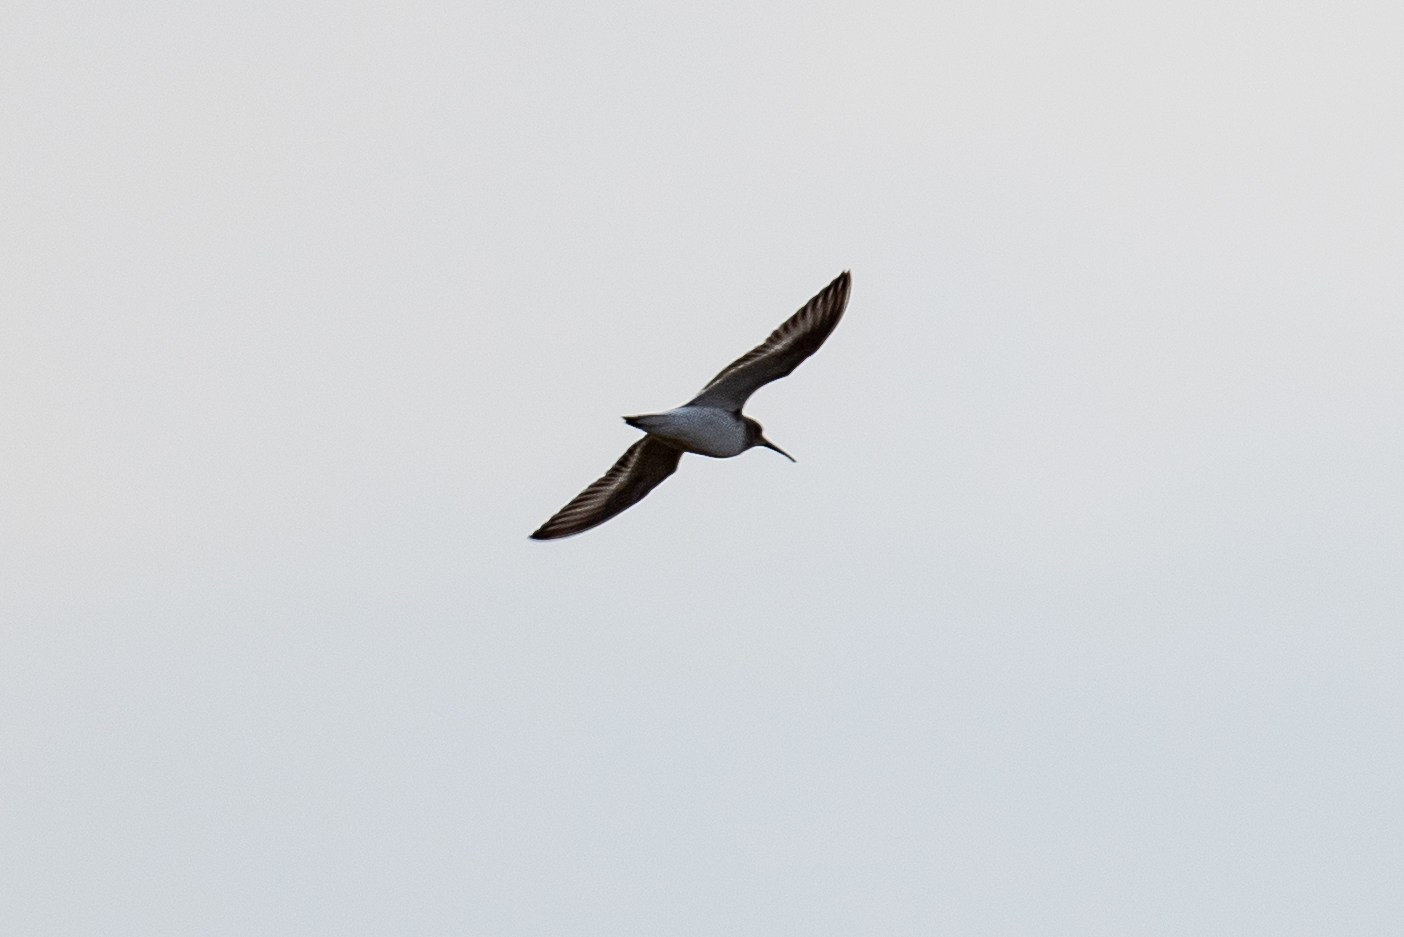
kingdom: Animalia
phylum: Chordata
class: Aves
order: Charadriiformes
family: Scolopacidae
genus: Calidris
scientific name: Calidris alpina
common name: Dunlin
